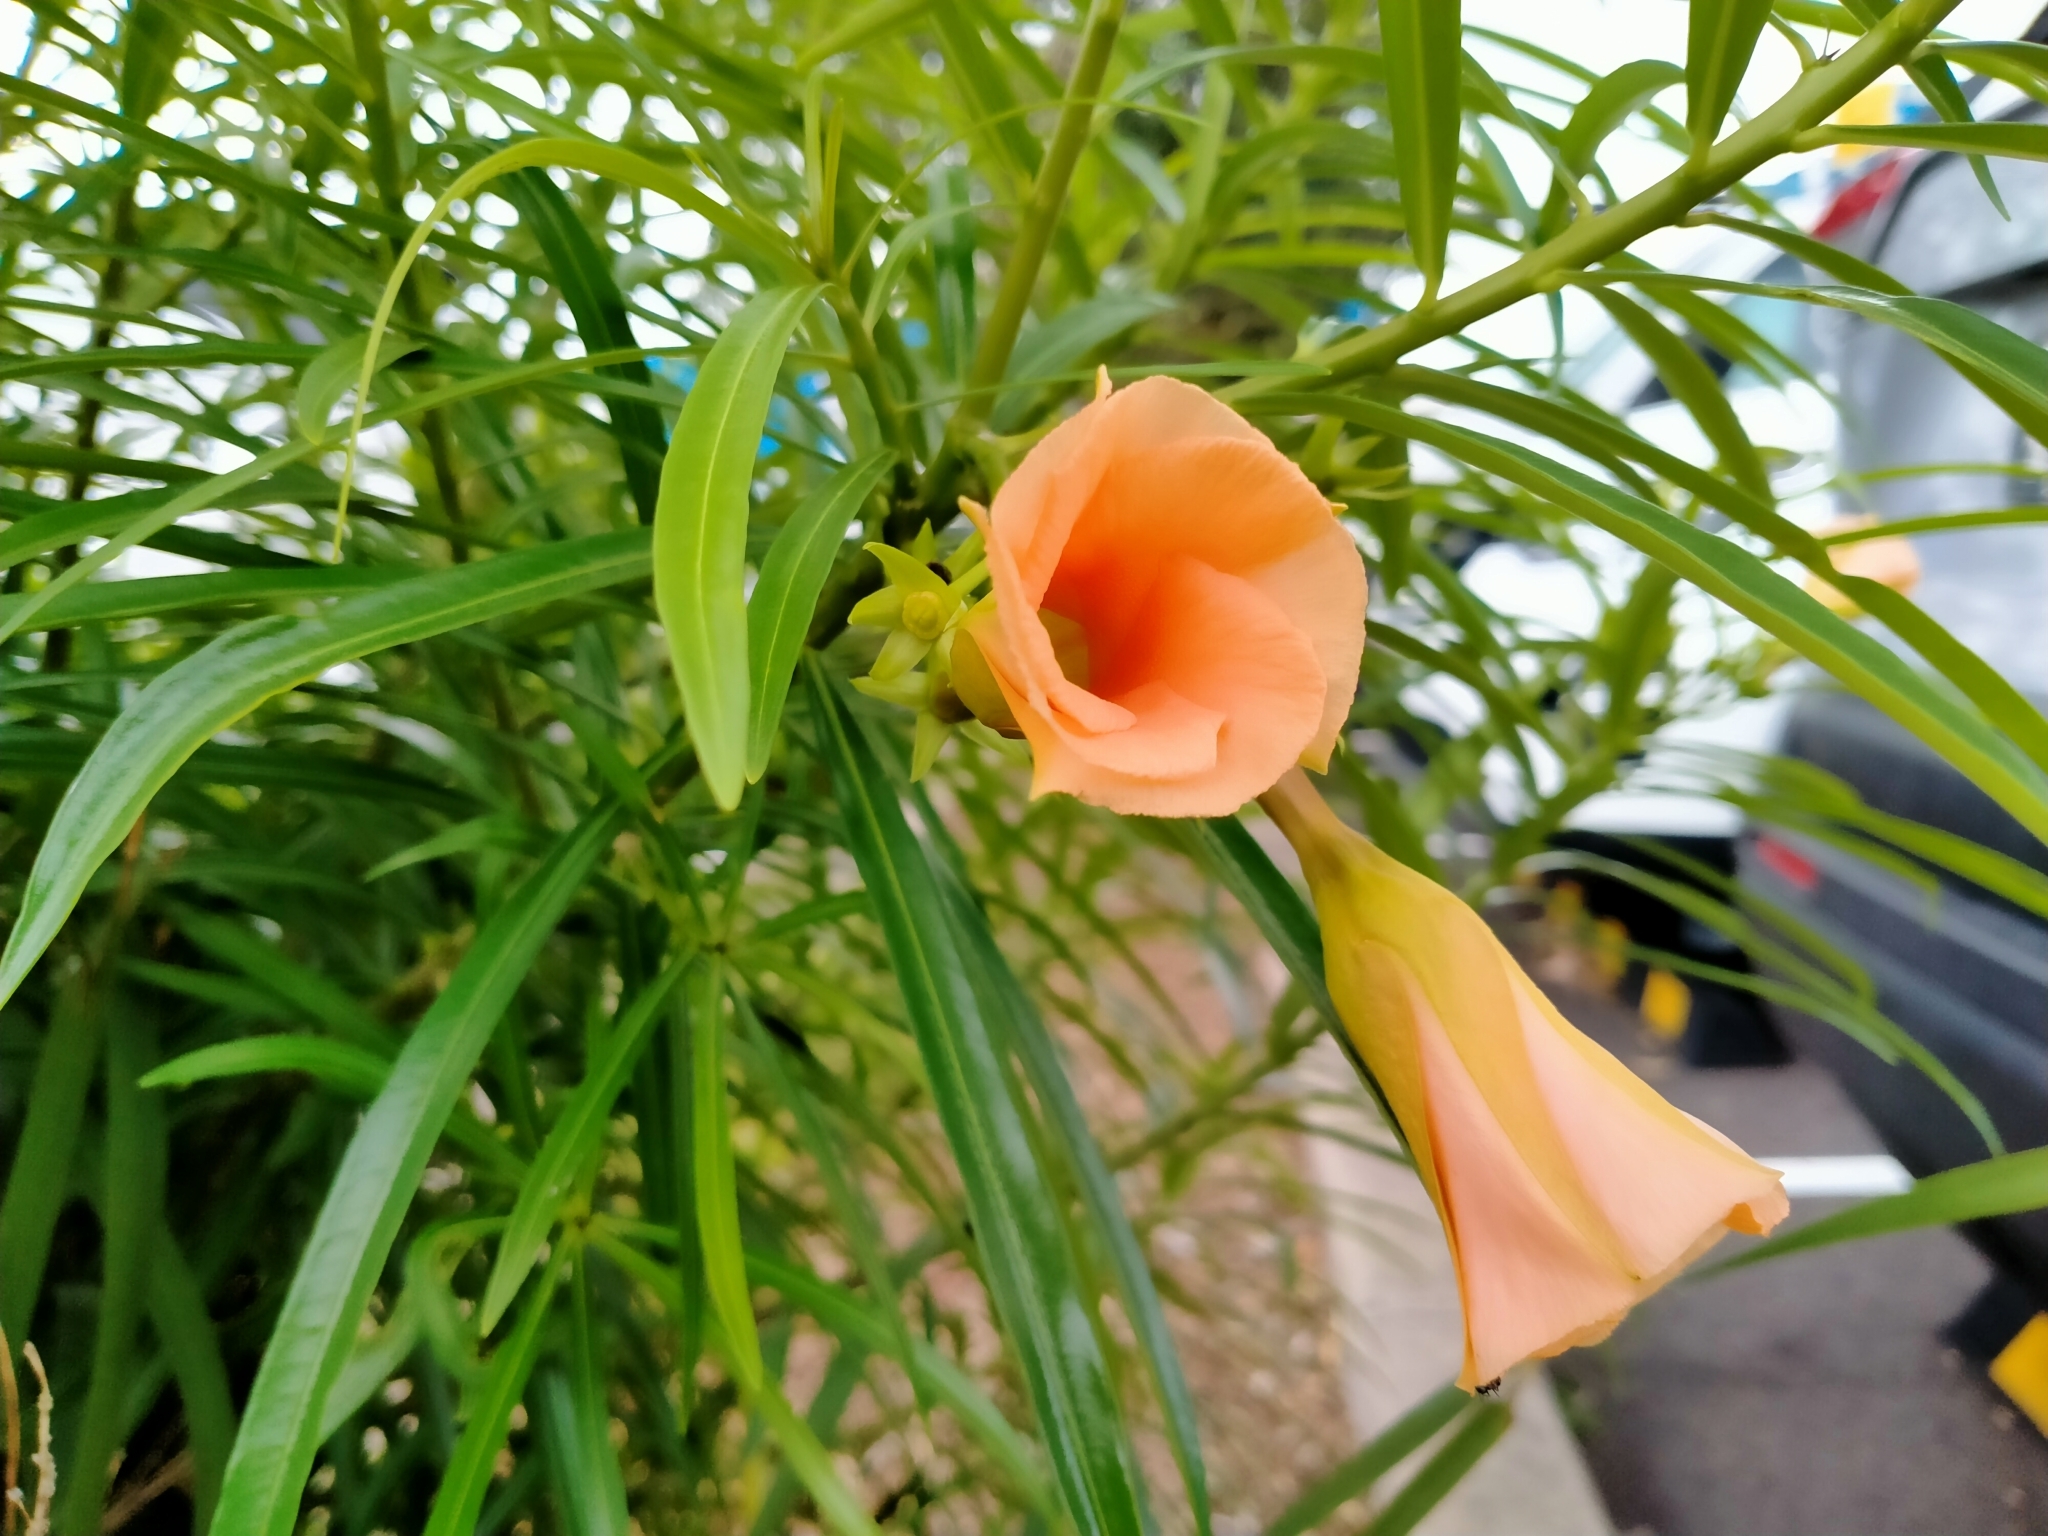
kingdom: Plantae
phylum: Tracheophyta
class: Magnoliopsida
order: Gentianales
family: Apocynaceae
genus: Cascabela
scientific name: Cascabela thevetia
